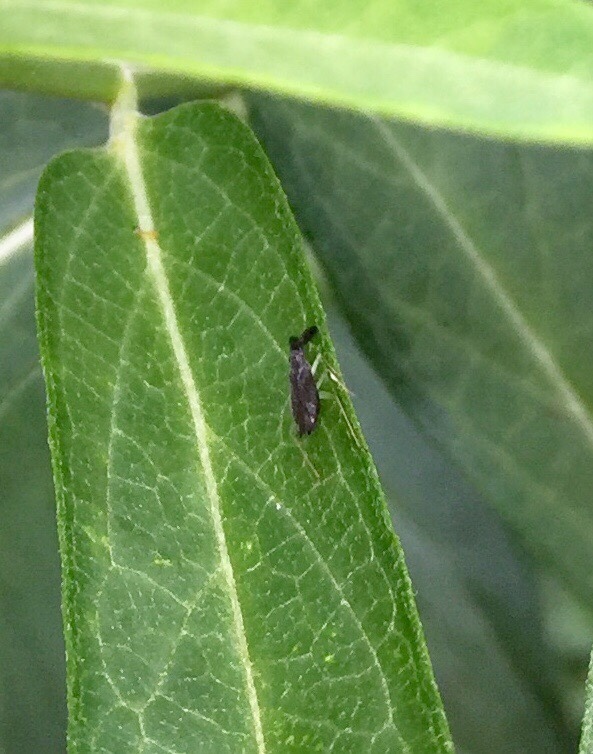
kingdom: Animalia
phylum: Arthropoda
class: Insecta
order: Hemiptera
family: Miridae
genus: Heterotoma
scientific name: Heterotoma planicornis
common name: Plant bug
